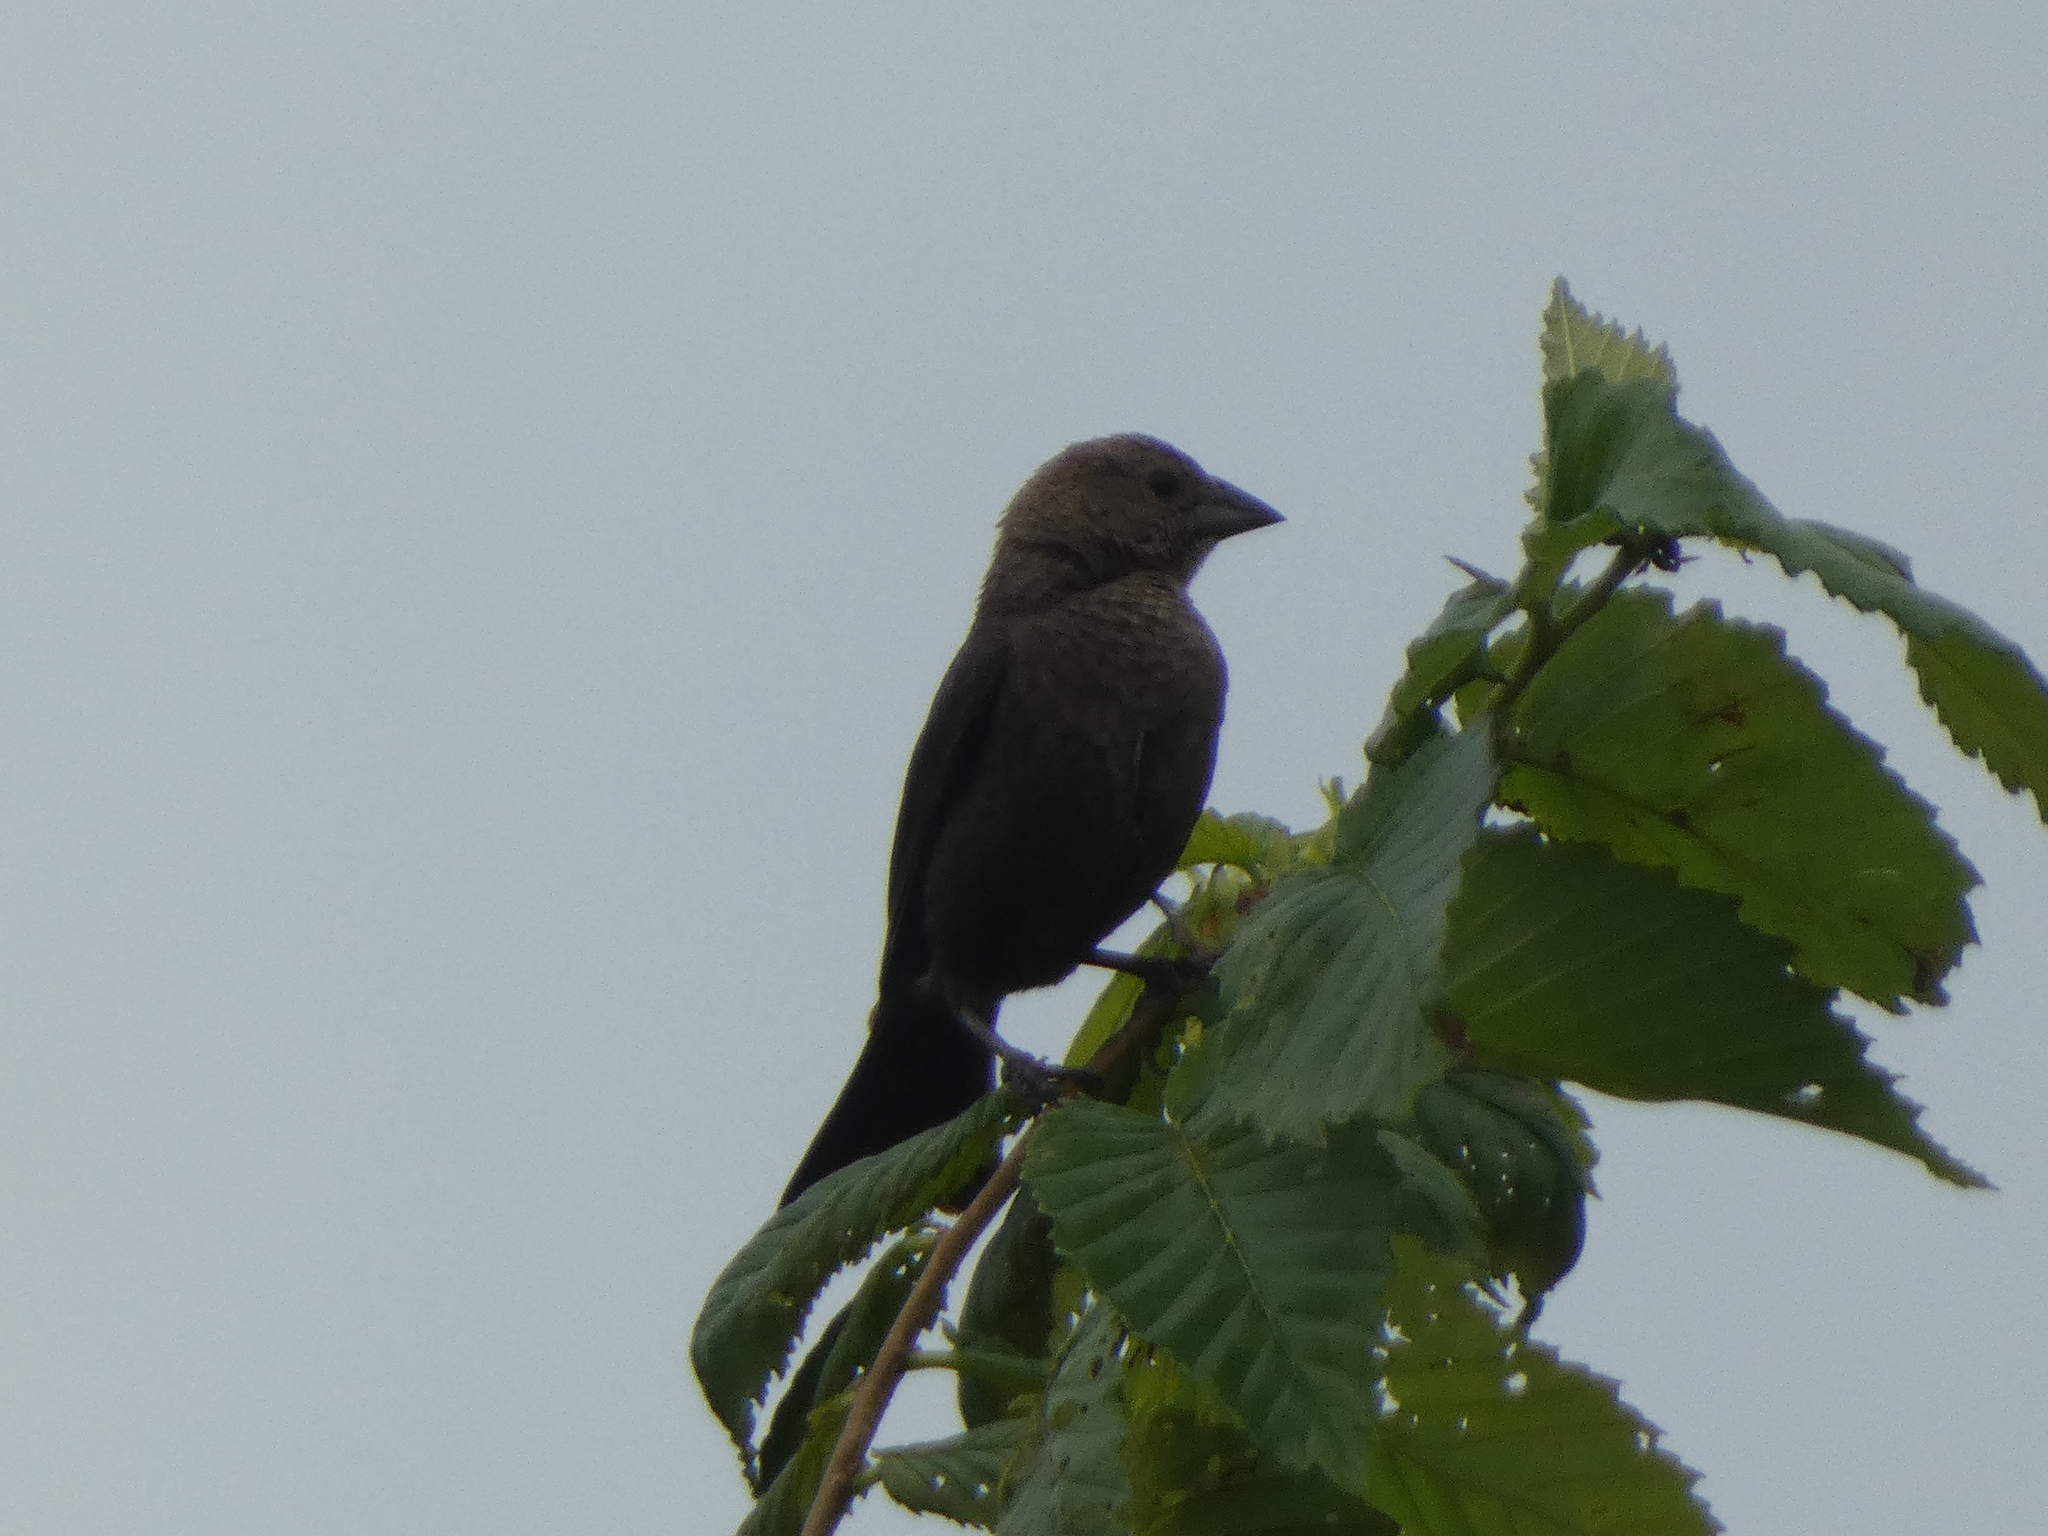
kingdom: Animalia
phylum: Chordata
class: Aves
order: Passeriformes
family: Icteridae
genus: Molothrus
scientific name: Molothrus ater
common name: Brown-headed cowbird
